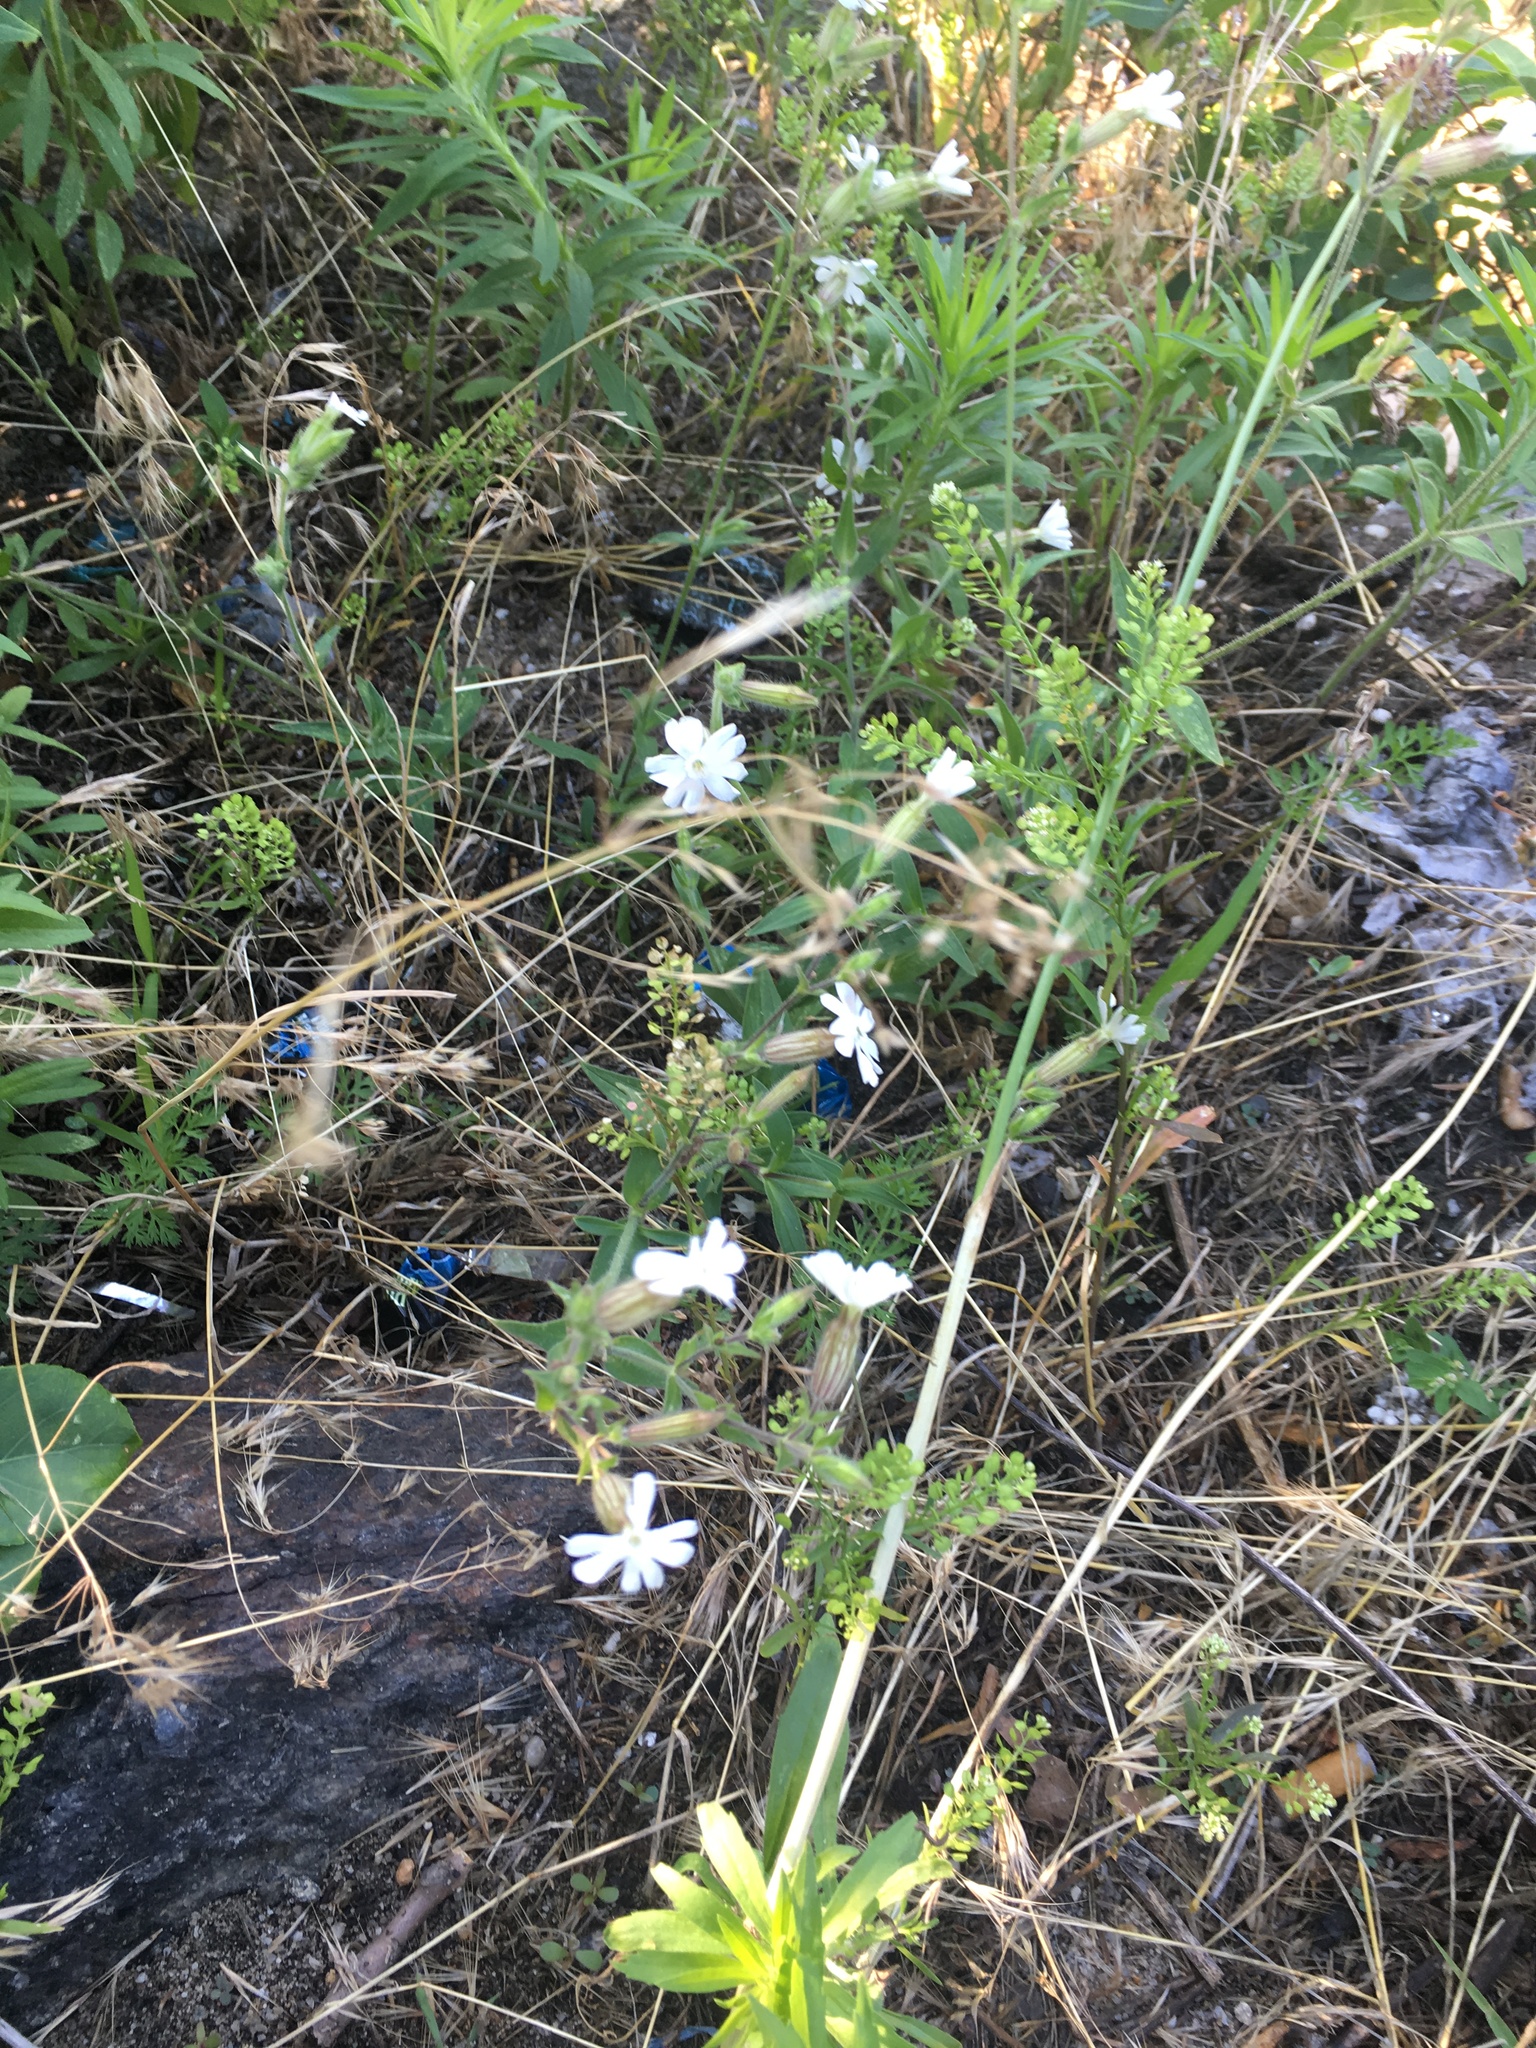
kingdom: Plantae
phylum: Tracheophyta
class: Magnoliopsida
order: Caryophyllales
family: Caryophyllaceae
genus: Silene
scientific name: Silene latifolia
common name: White campion
